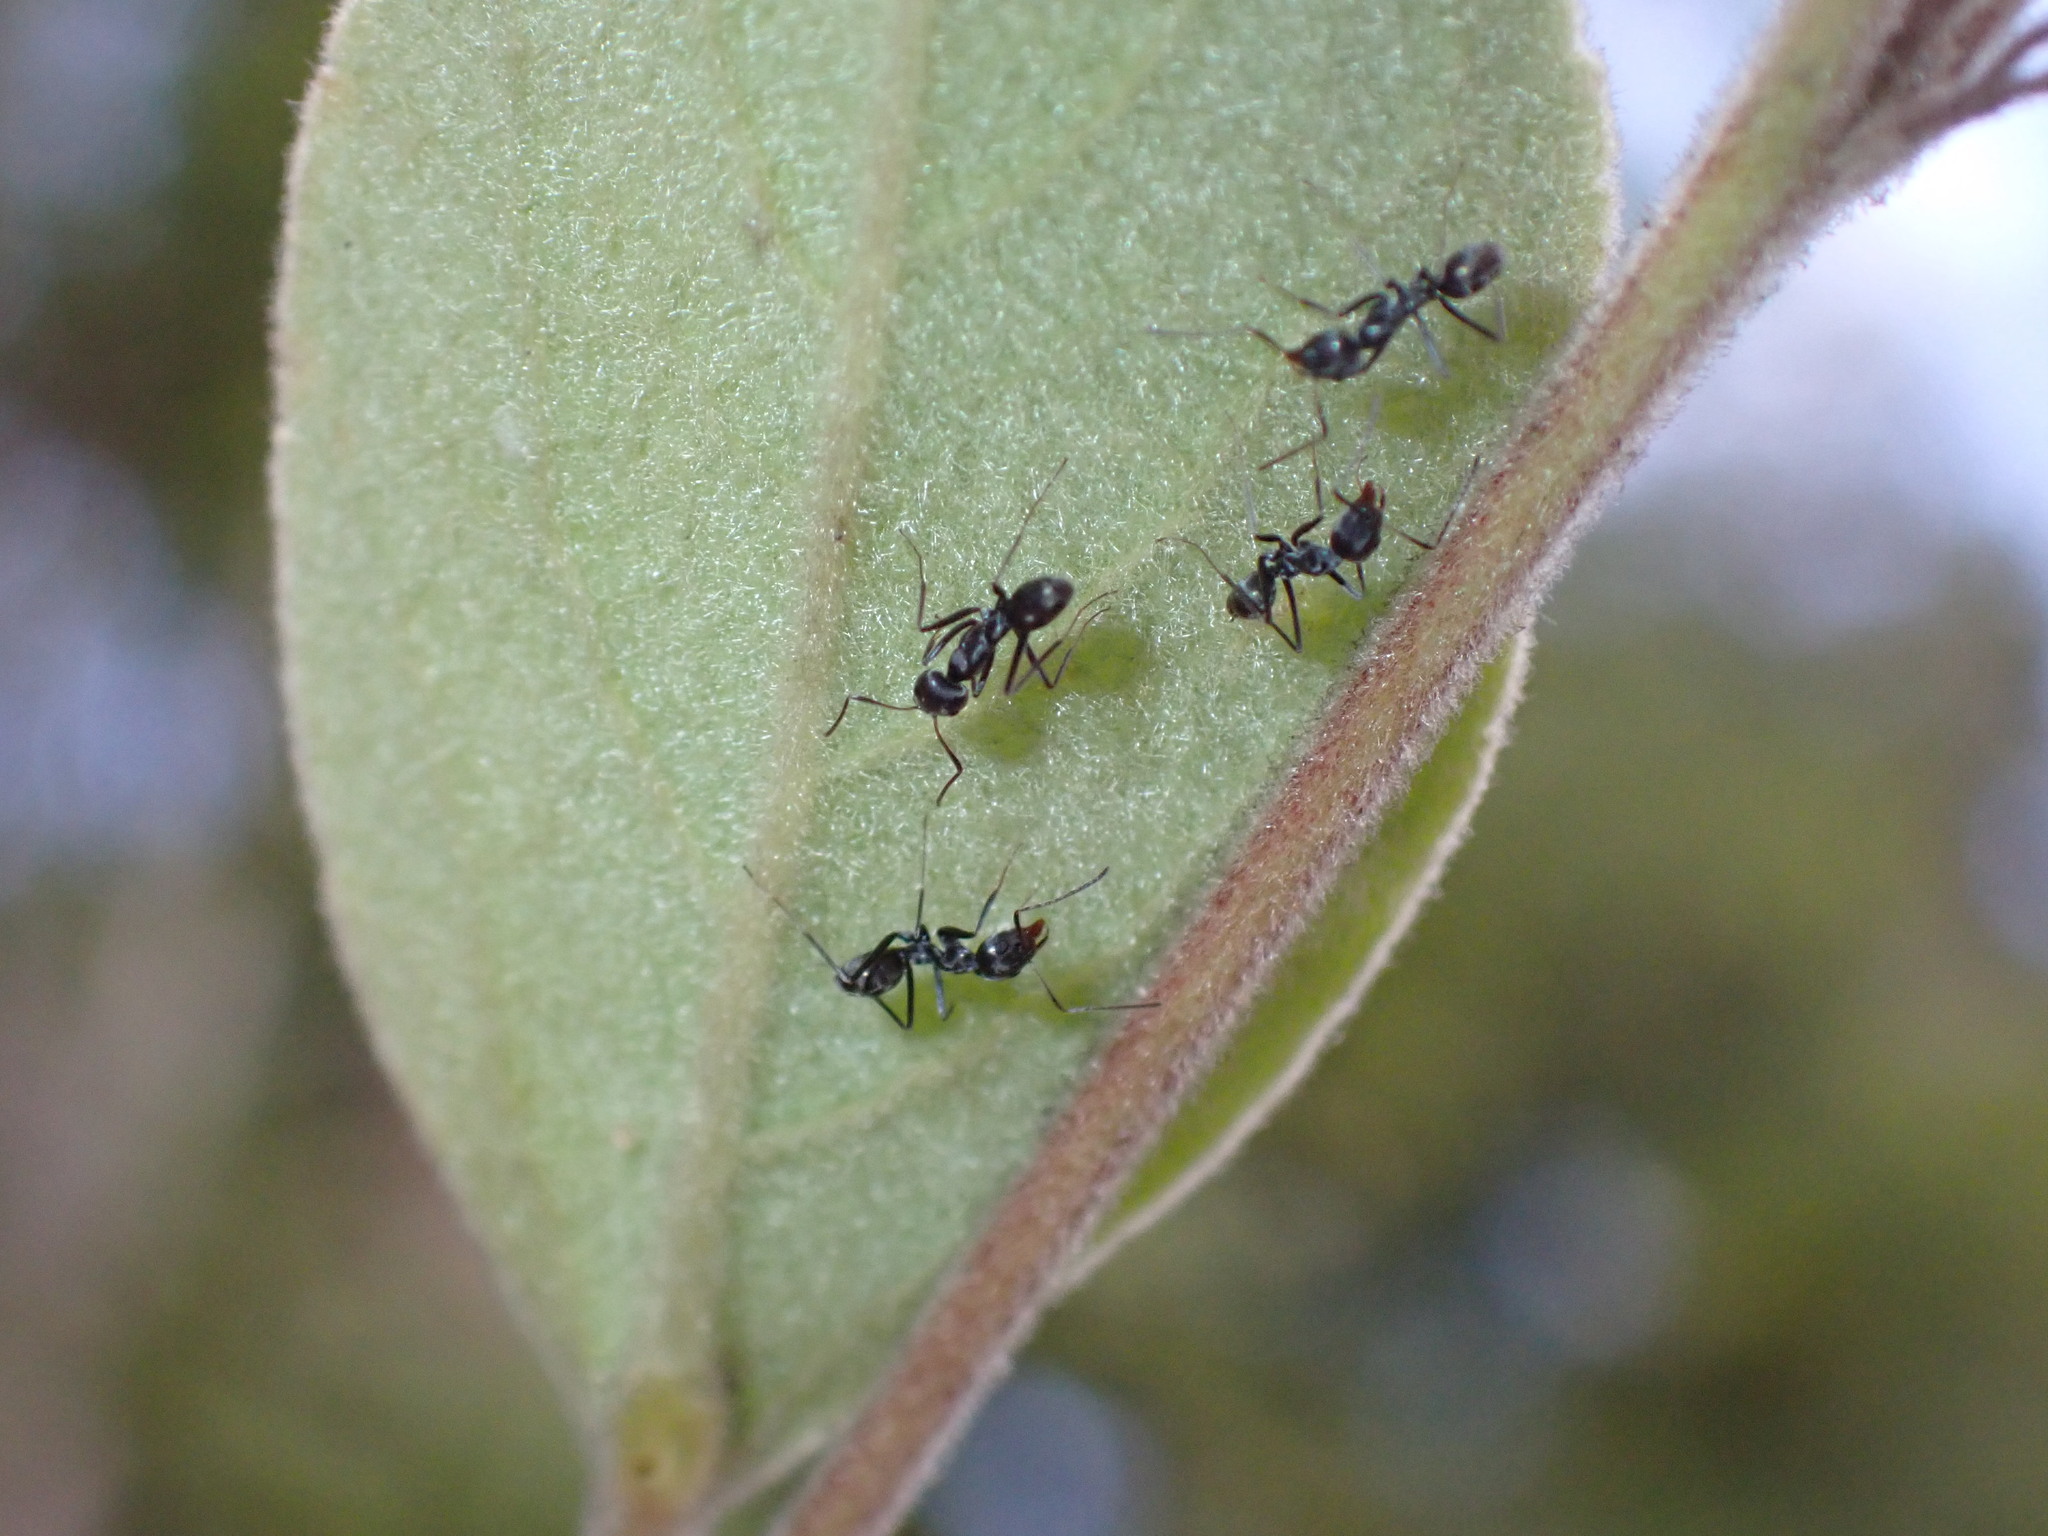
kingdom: Animalia
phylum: Arthropoda
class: Insecta
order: Hymenoptera
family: Formicidae
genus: Iridomyrmex
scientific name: Iridomyrmex anceps
